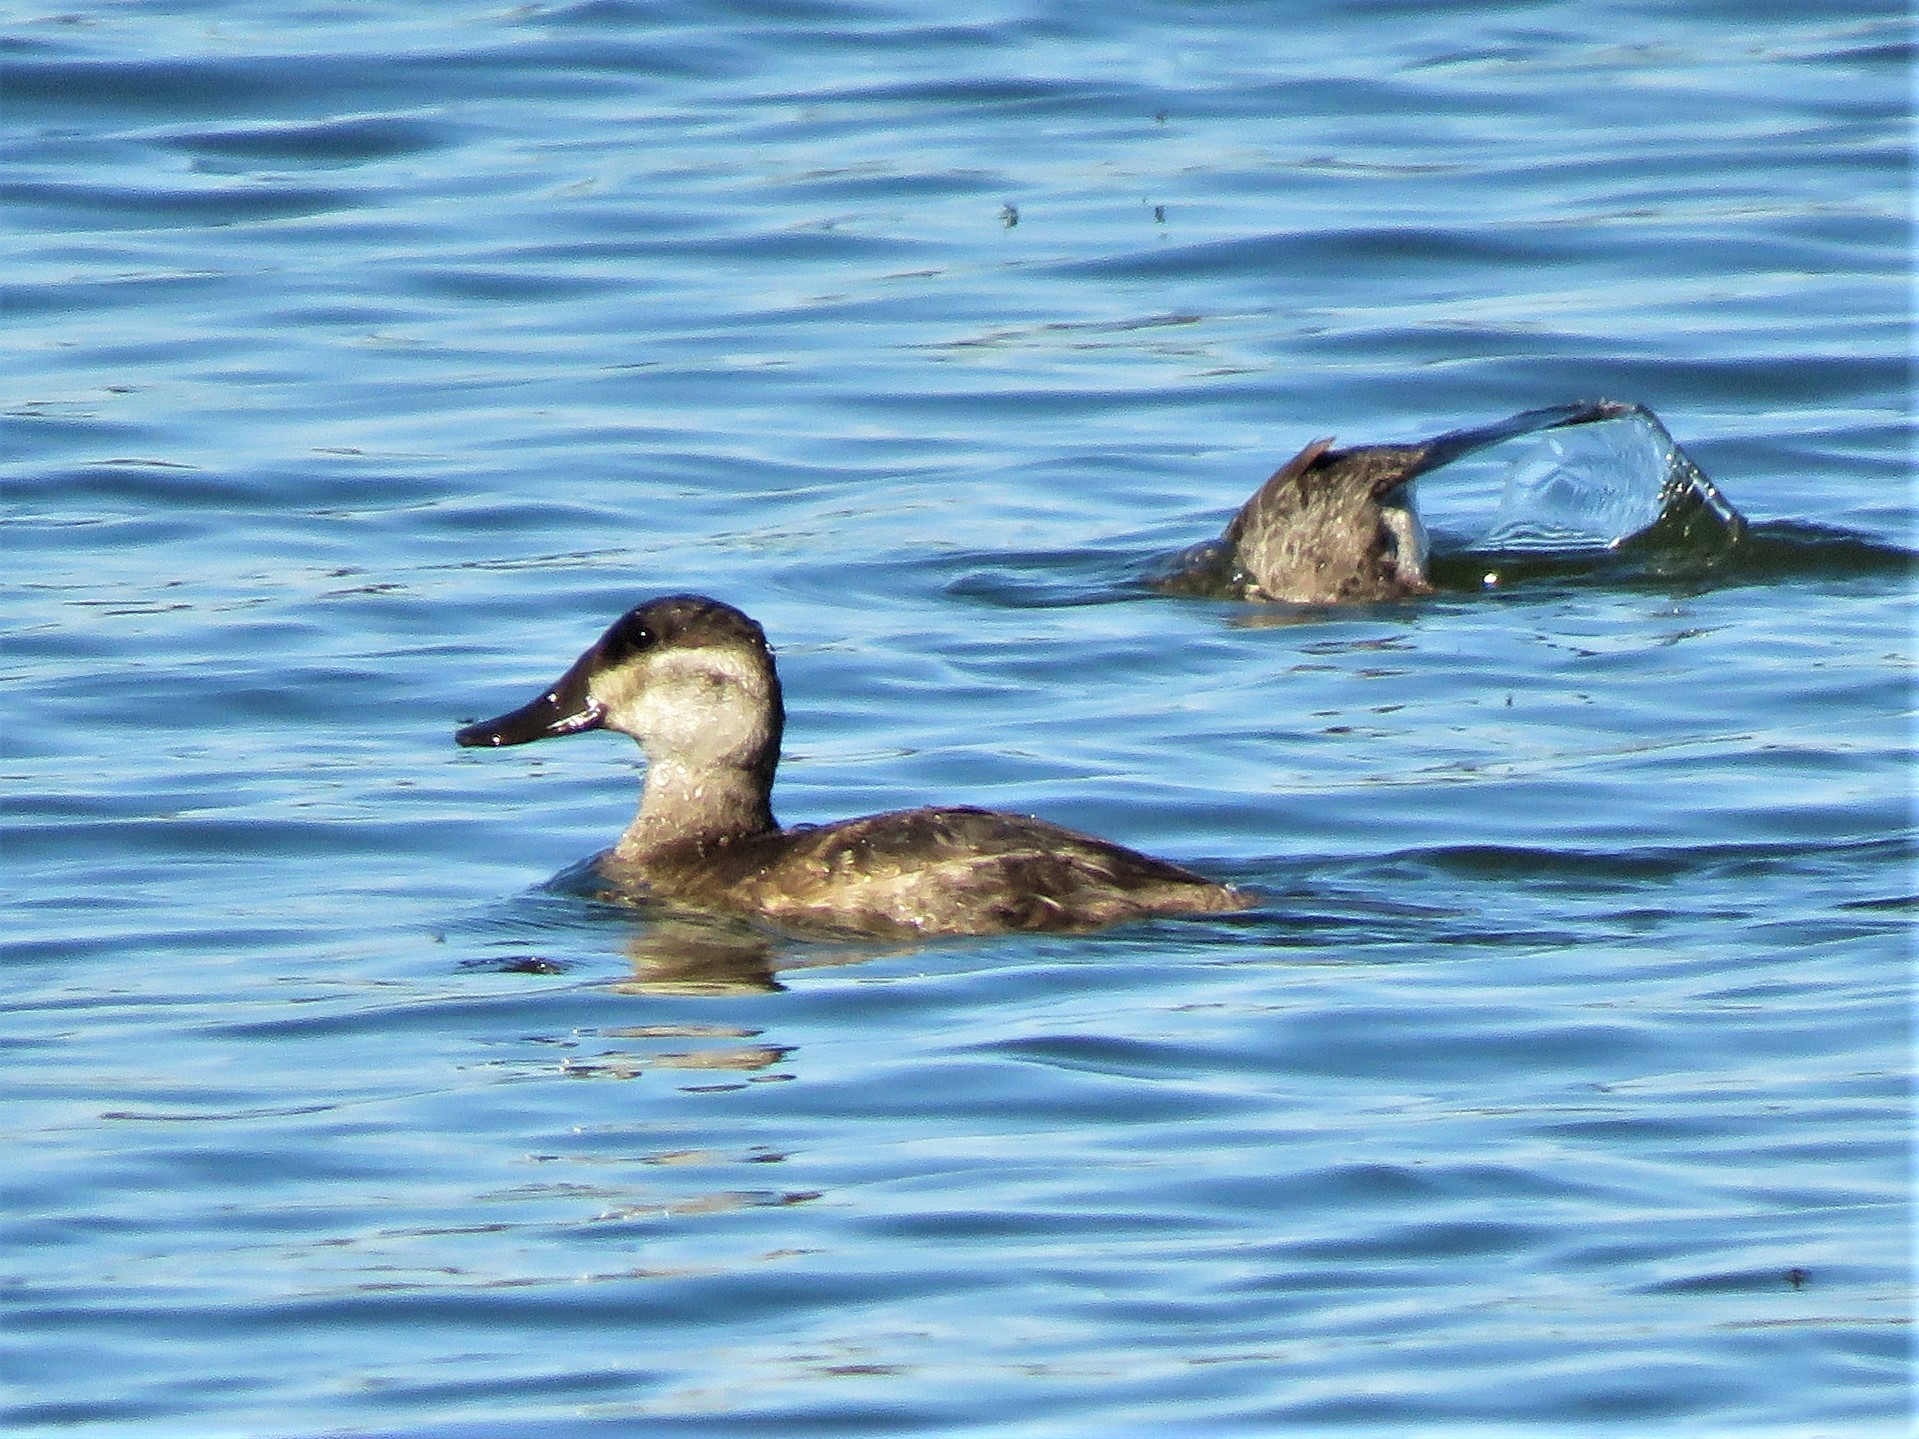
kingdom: Animalia
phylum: Chordata
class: Aves
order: Anseriformes
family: Anatidae
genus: Oxyura
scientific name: Oxyura jamaicensis
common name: Ruddy duck
